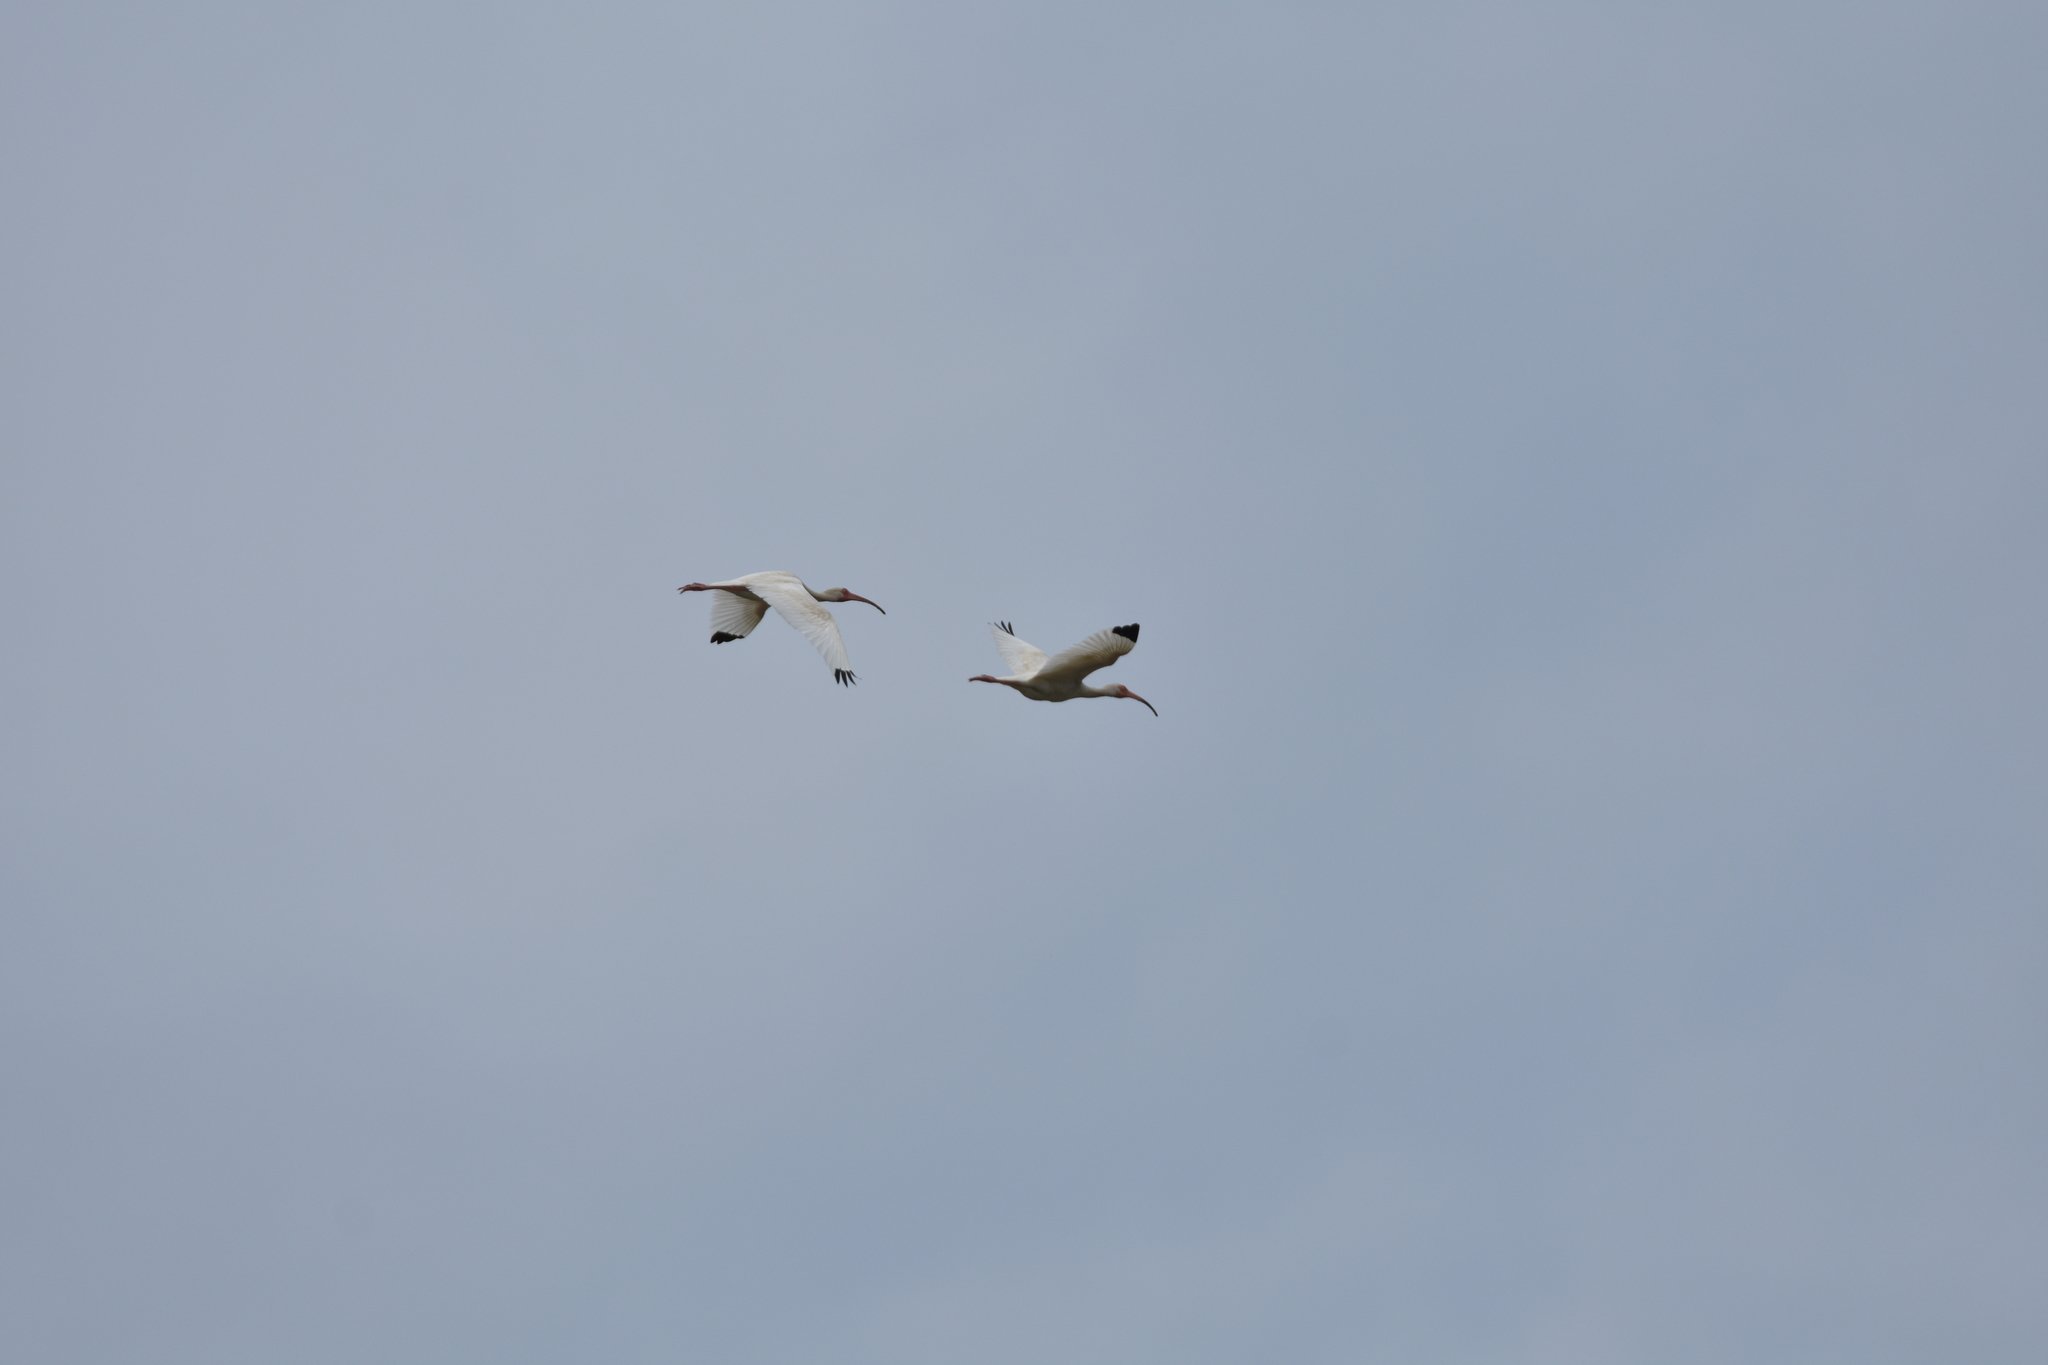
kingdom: Animalia
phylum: Chordata
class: Aves
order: Pelecaniformes
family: Threskiornithidae
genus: Eudocimus
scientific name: Eudocimus albus
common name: White ibis
